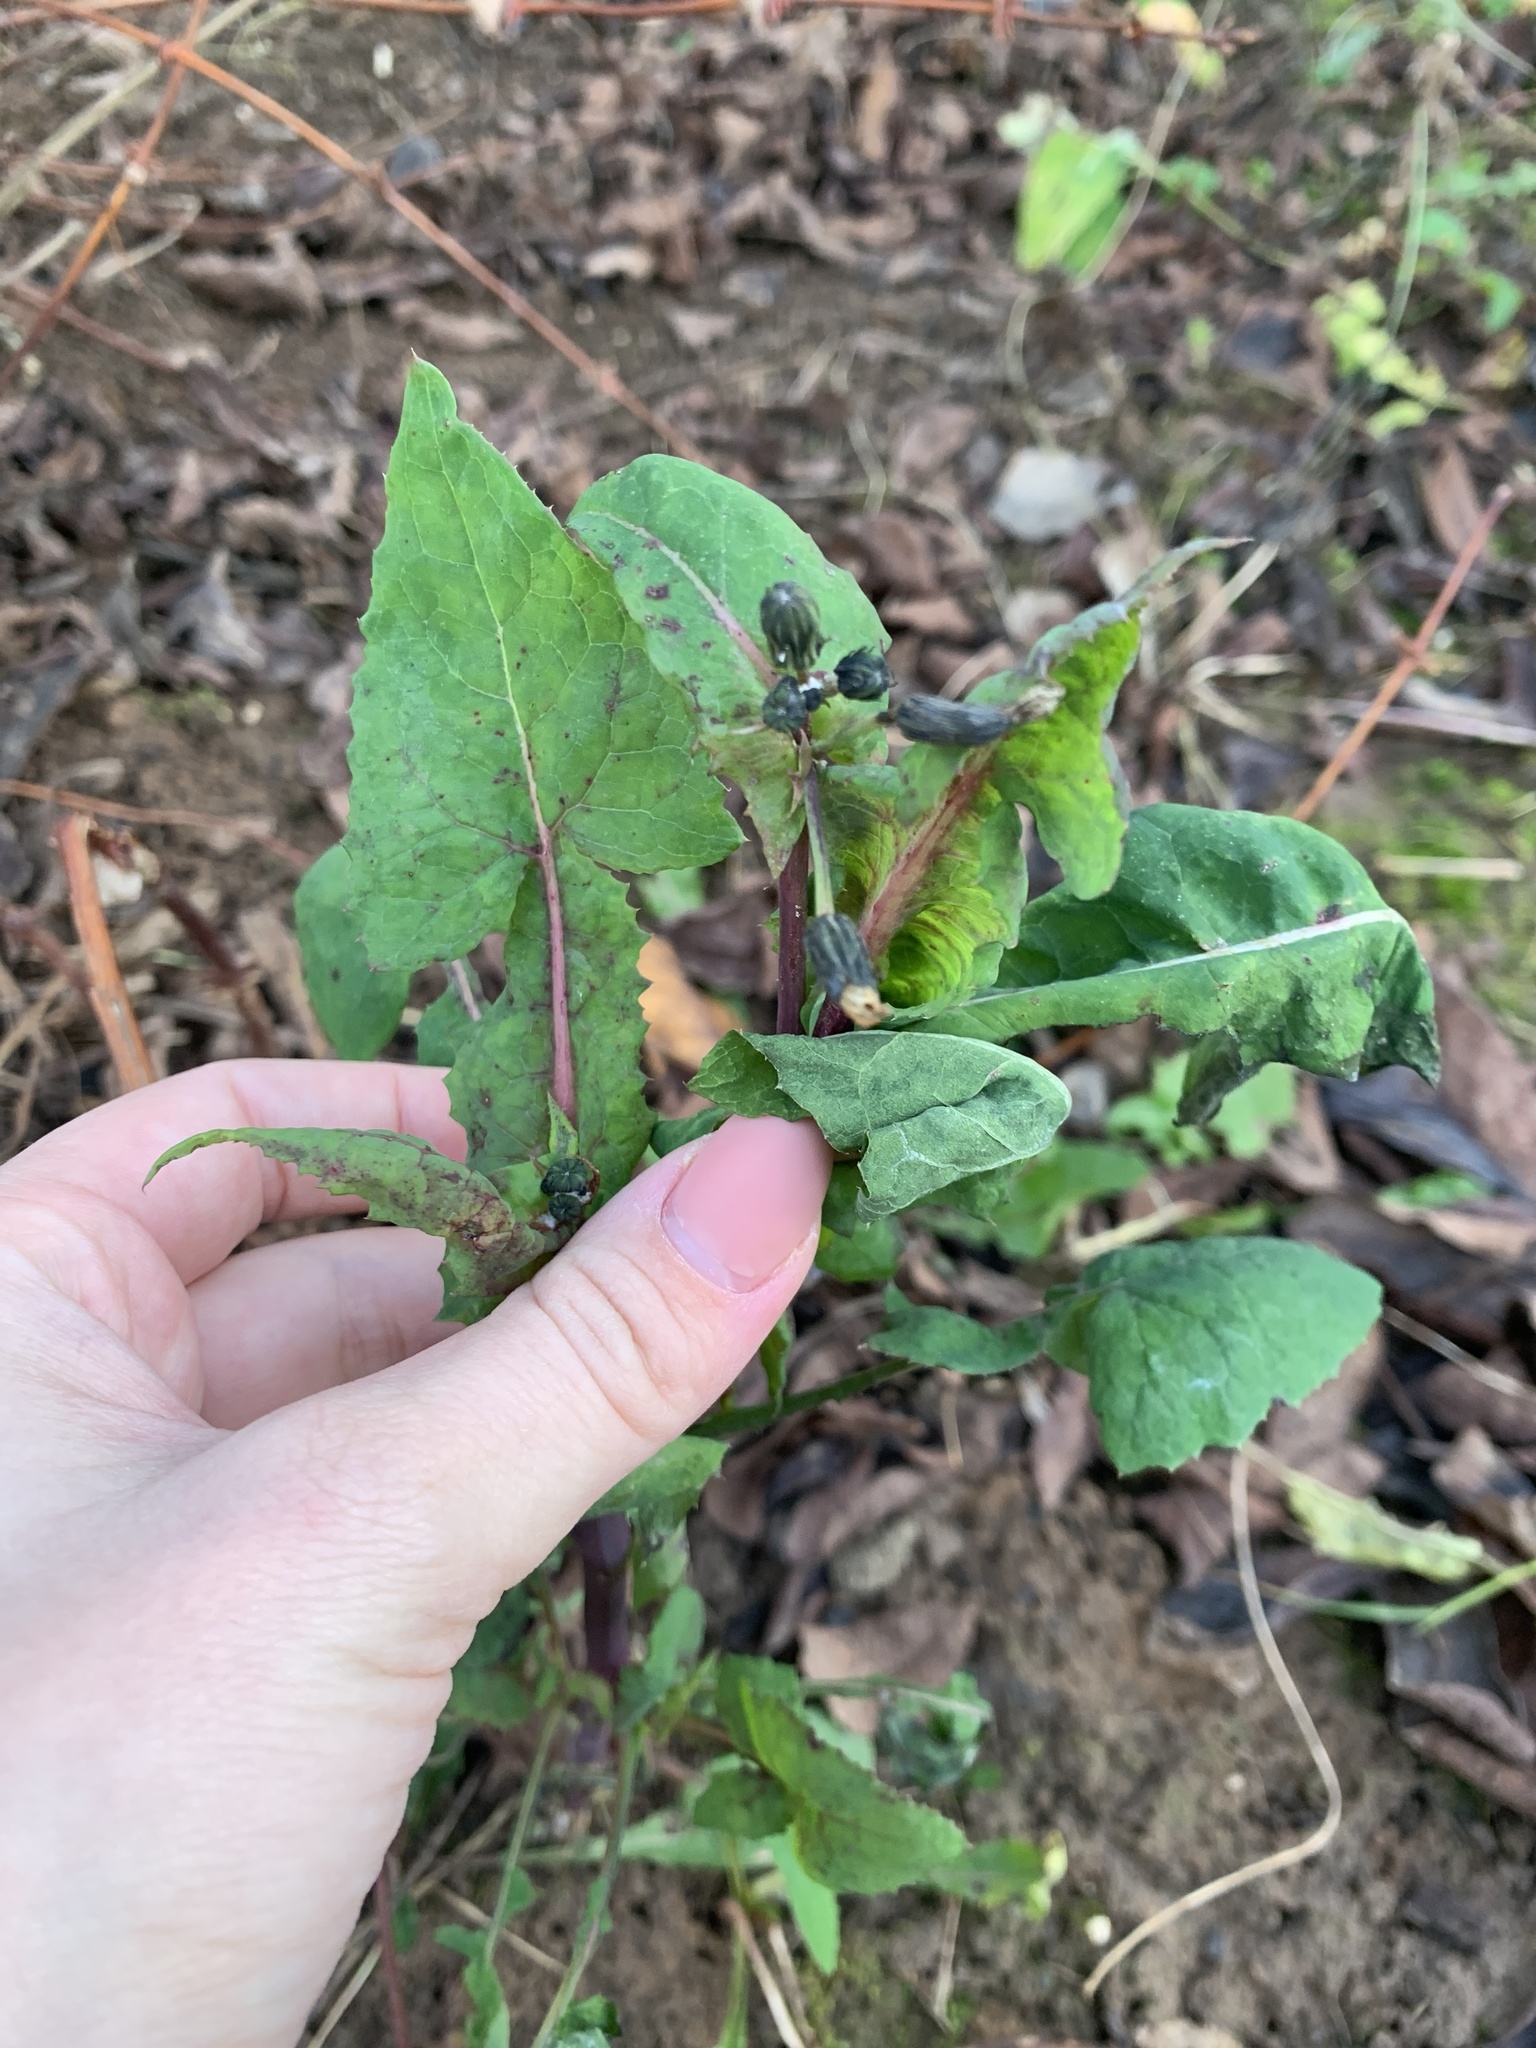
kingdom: Plantae
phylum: Tracheophyta
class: Magnoliopsida
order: Asterales
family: Asteraceae
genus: Sonchus
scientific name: Sonchus oleraceus
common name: Common sowthistle
